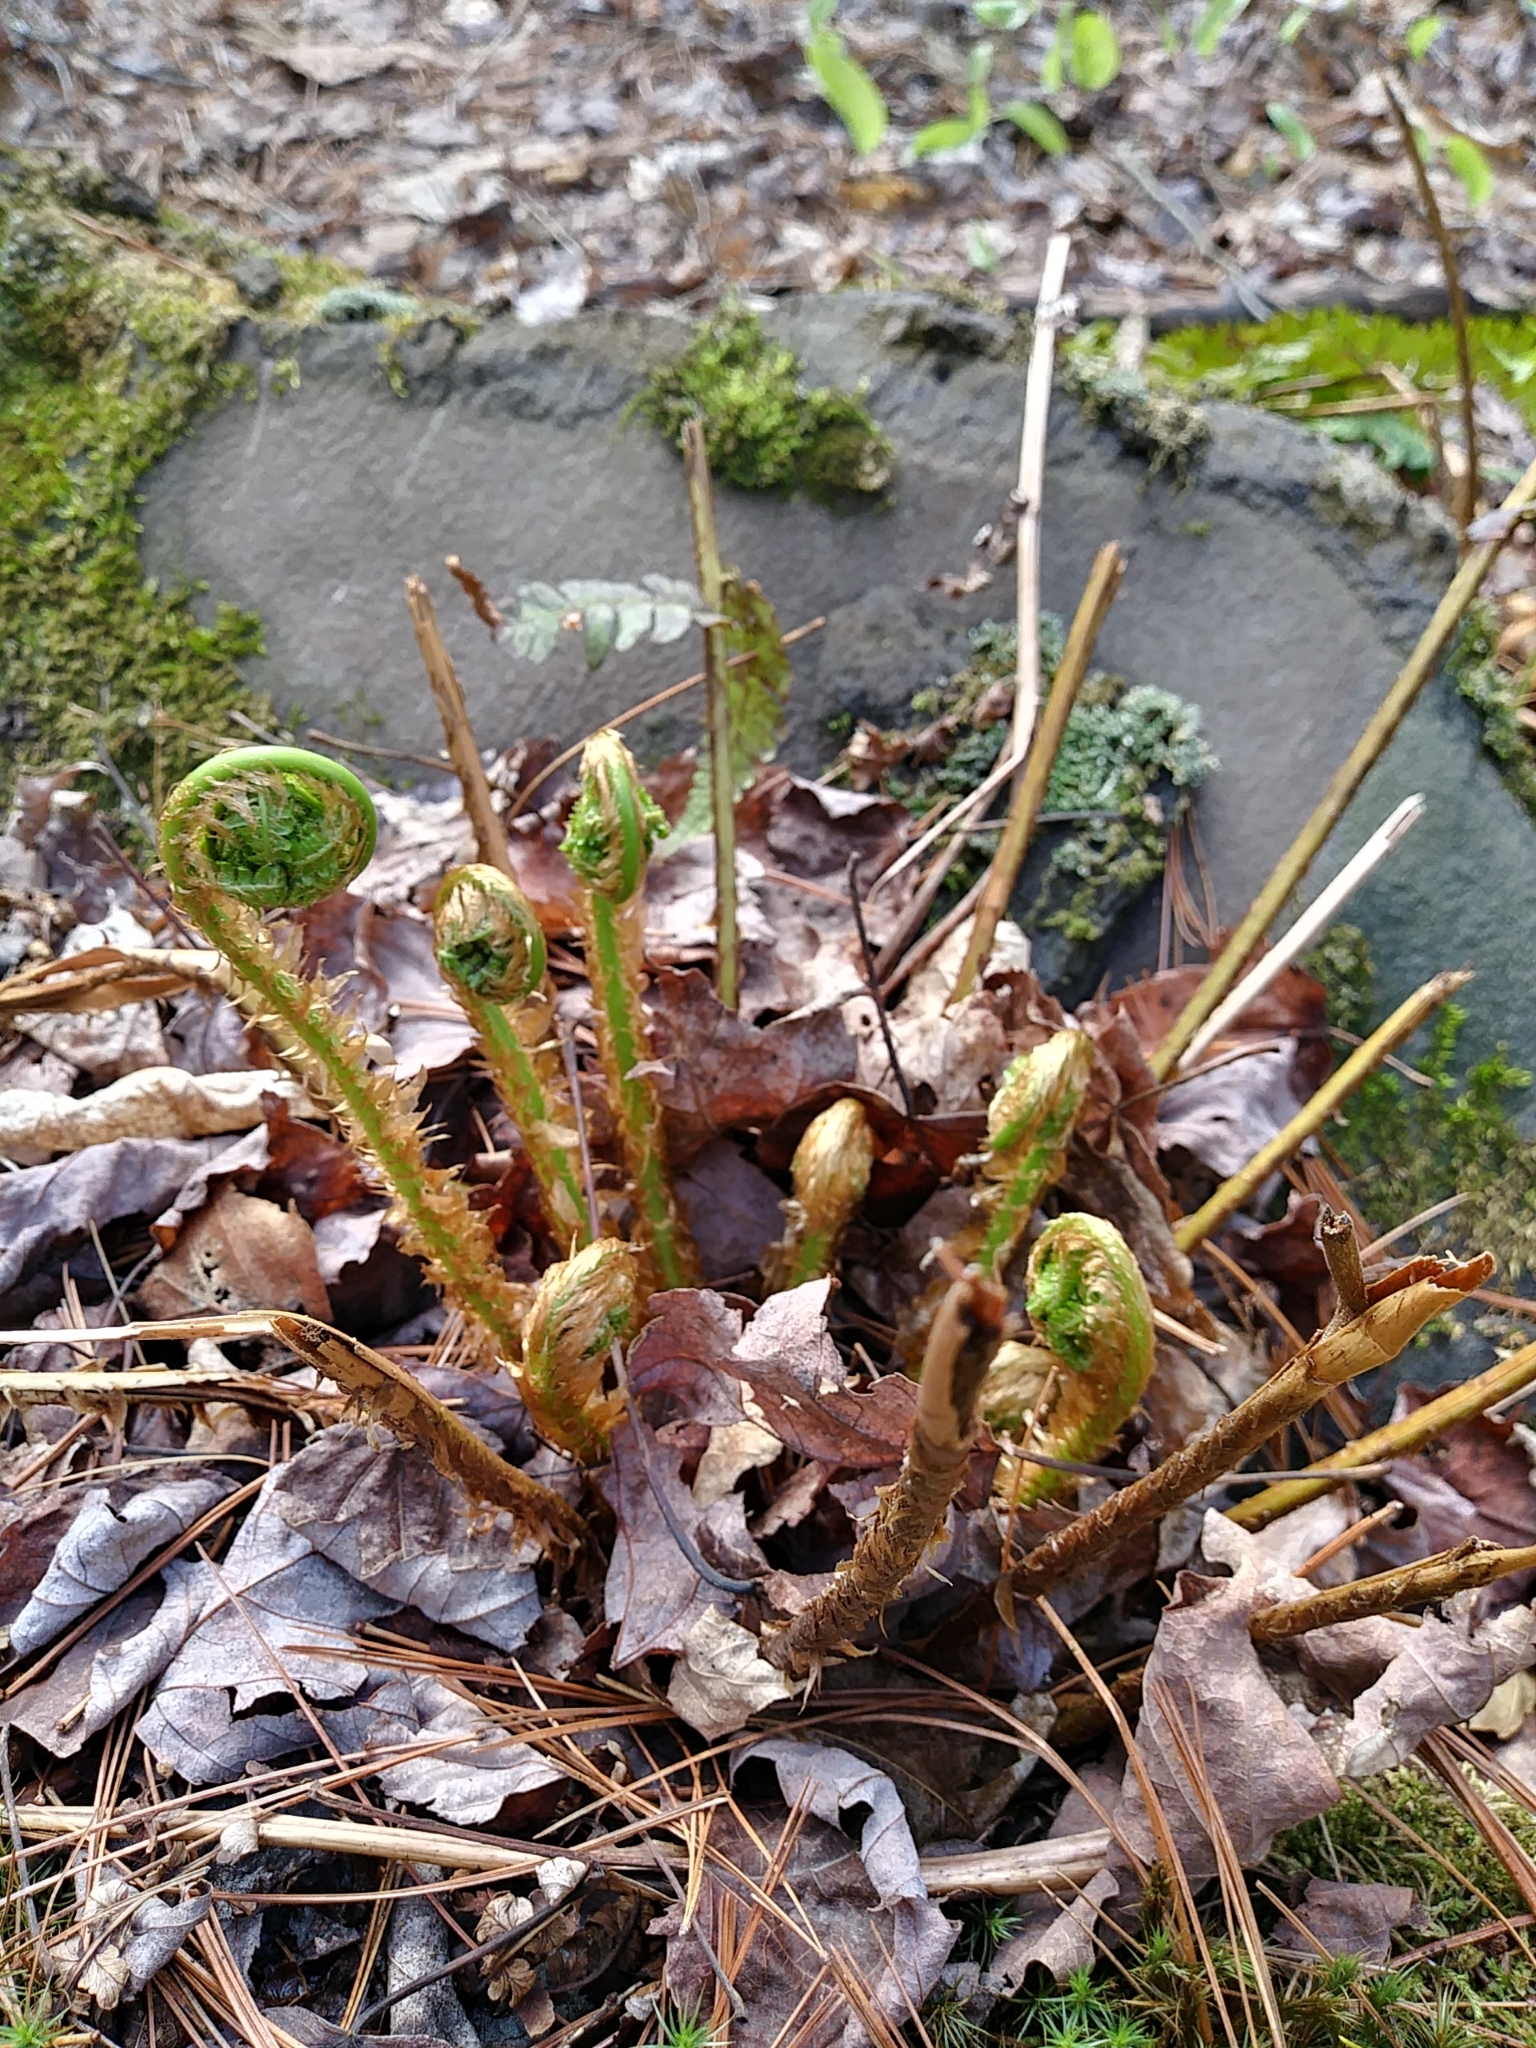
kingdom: Plantae
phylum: Tracheophyta
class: Polypodiopsida
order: Polypodiales
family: Dryopteridaceae
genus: Dryopteris
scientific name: Dryopteris marginalis
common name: Marginal wood fern
